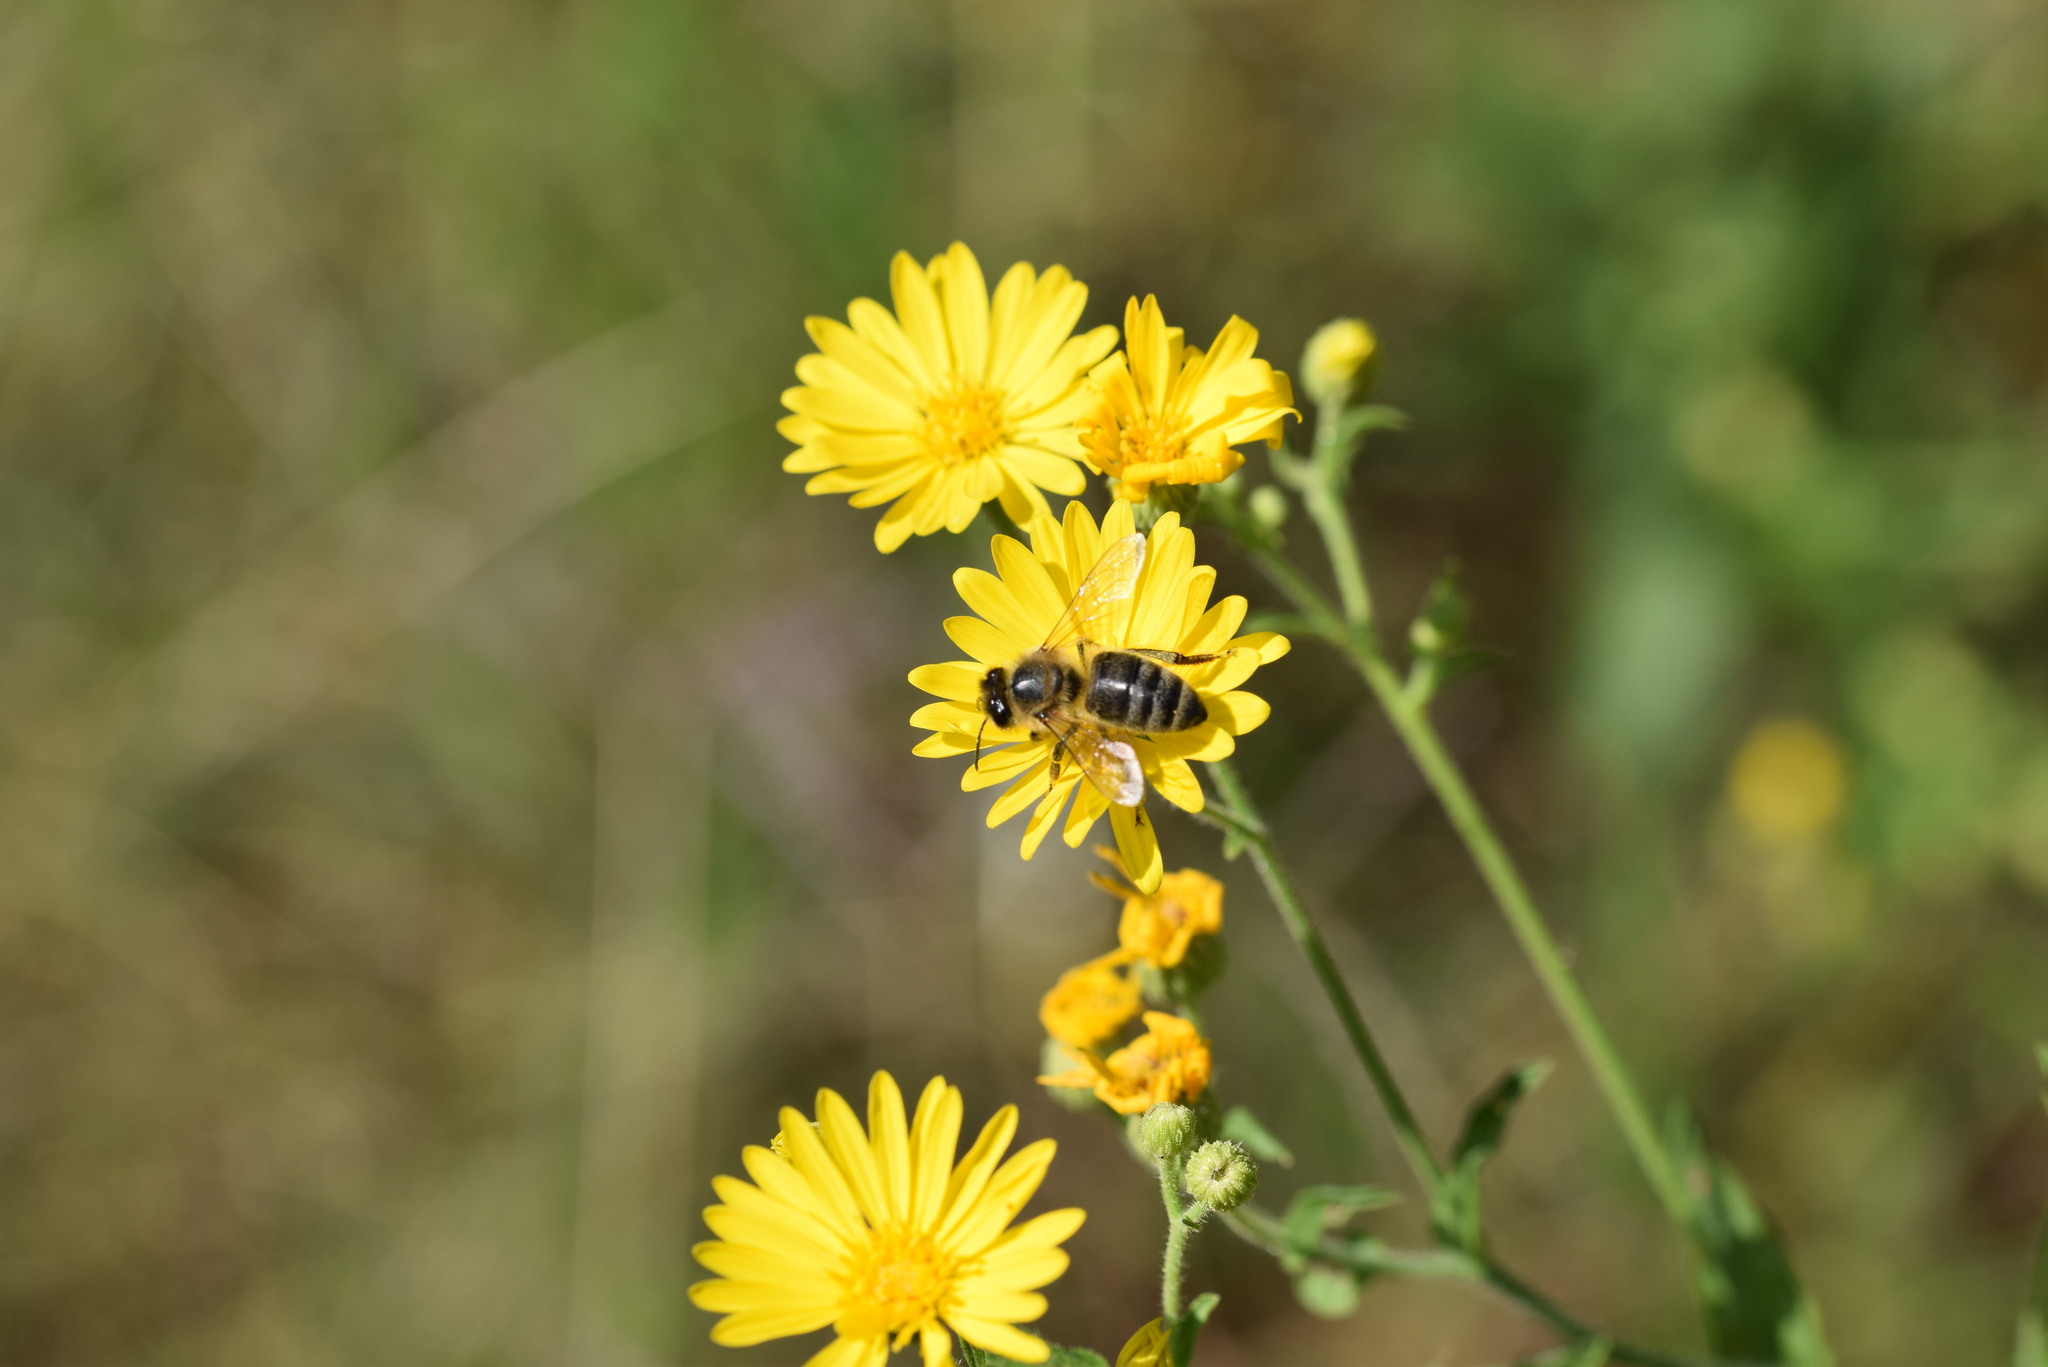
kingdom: Animalia
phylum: Arthropoda
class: Insecta
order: Hymenoptera
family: Apidae
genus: Apis
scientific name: Apis mellifera
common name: Honey bee
